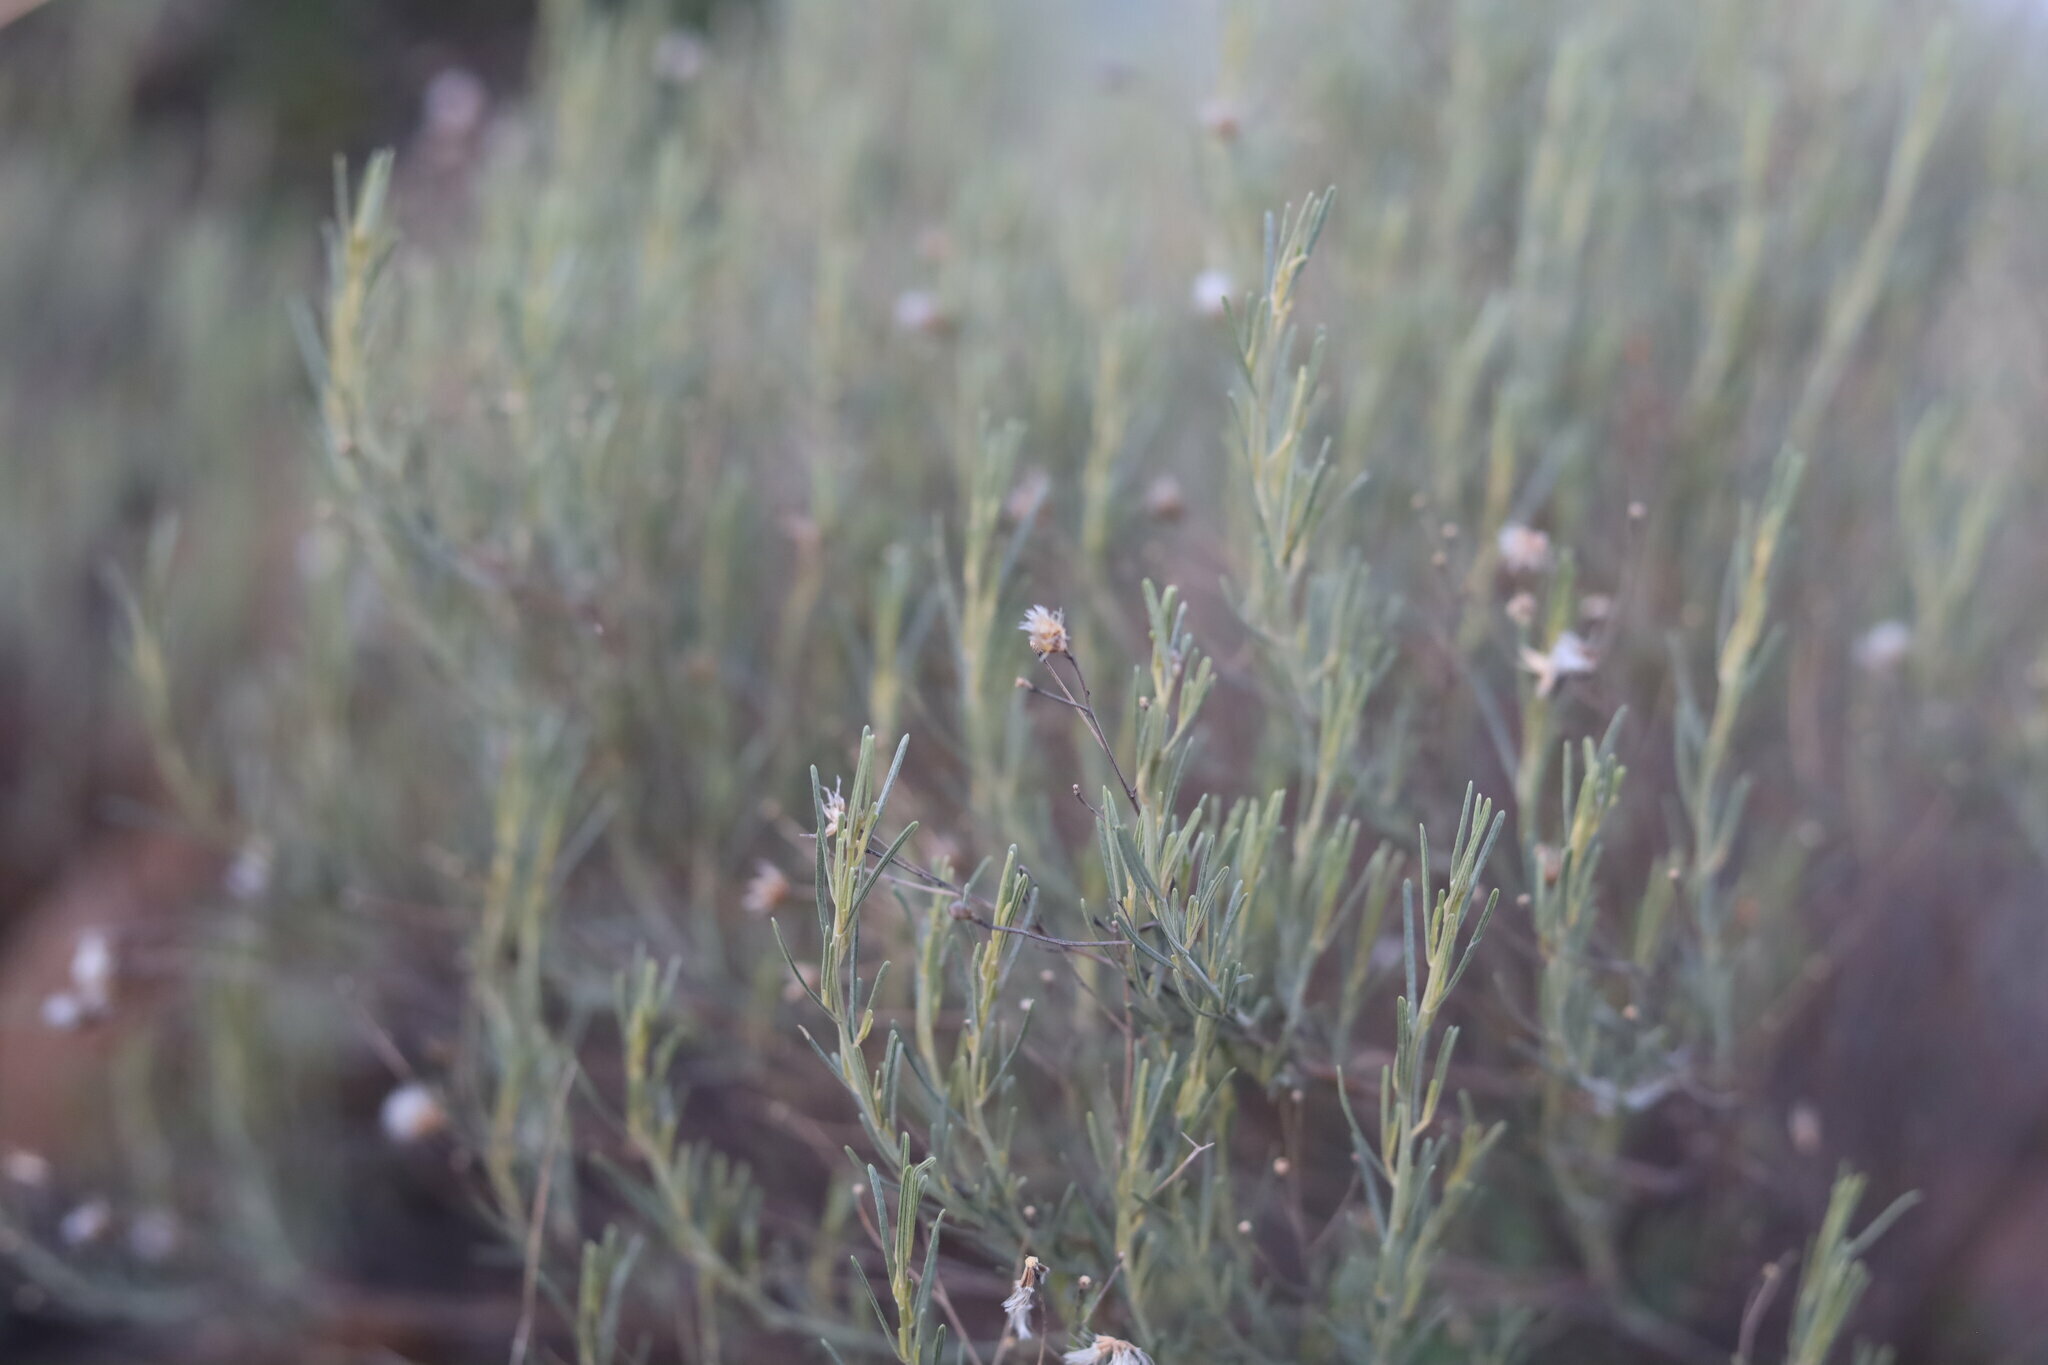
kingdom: Plantae
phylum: Tracheophyta
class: Magnoliopsida
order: Asterales
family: Asteraceae
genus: Athrixia
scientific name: Athrixia elata
